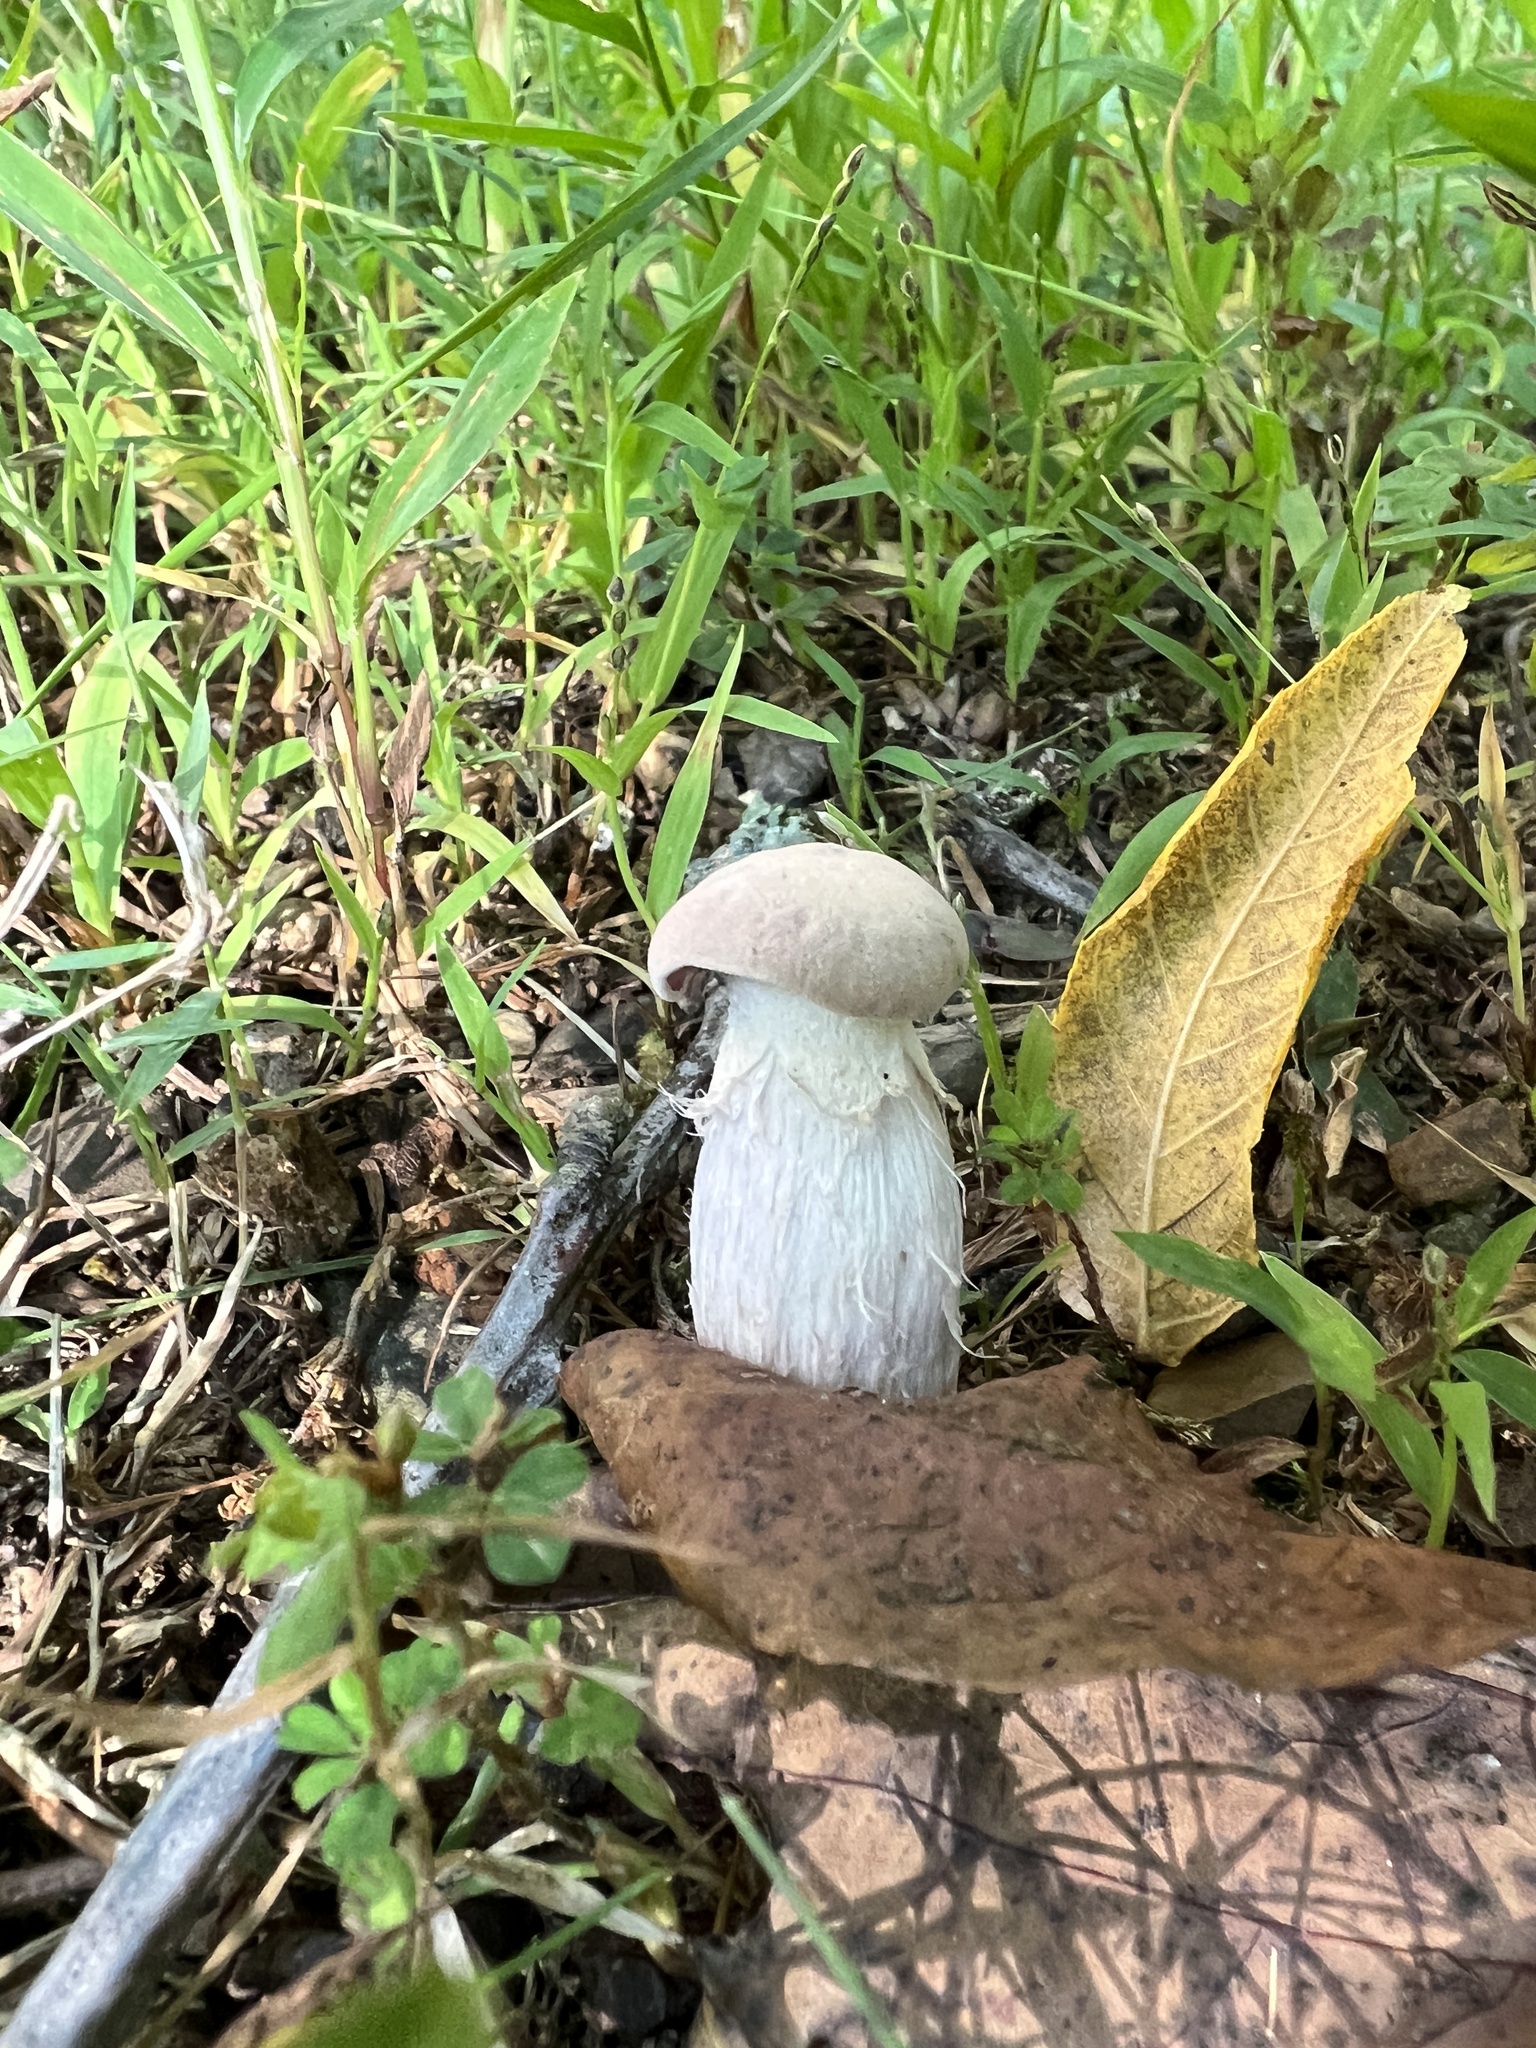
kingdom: Fungi
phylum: Basidiomycota
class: Agaricomycetes
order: Agaricales
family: Hydnangiaceae
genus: Laccaria
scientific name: Laccaria ochropurpurea
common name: Purple laccaria
